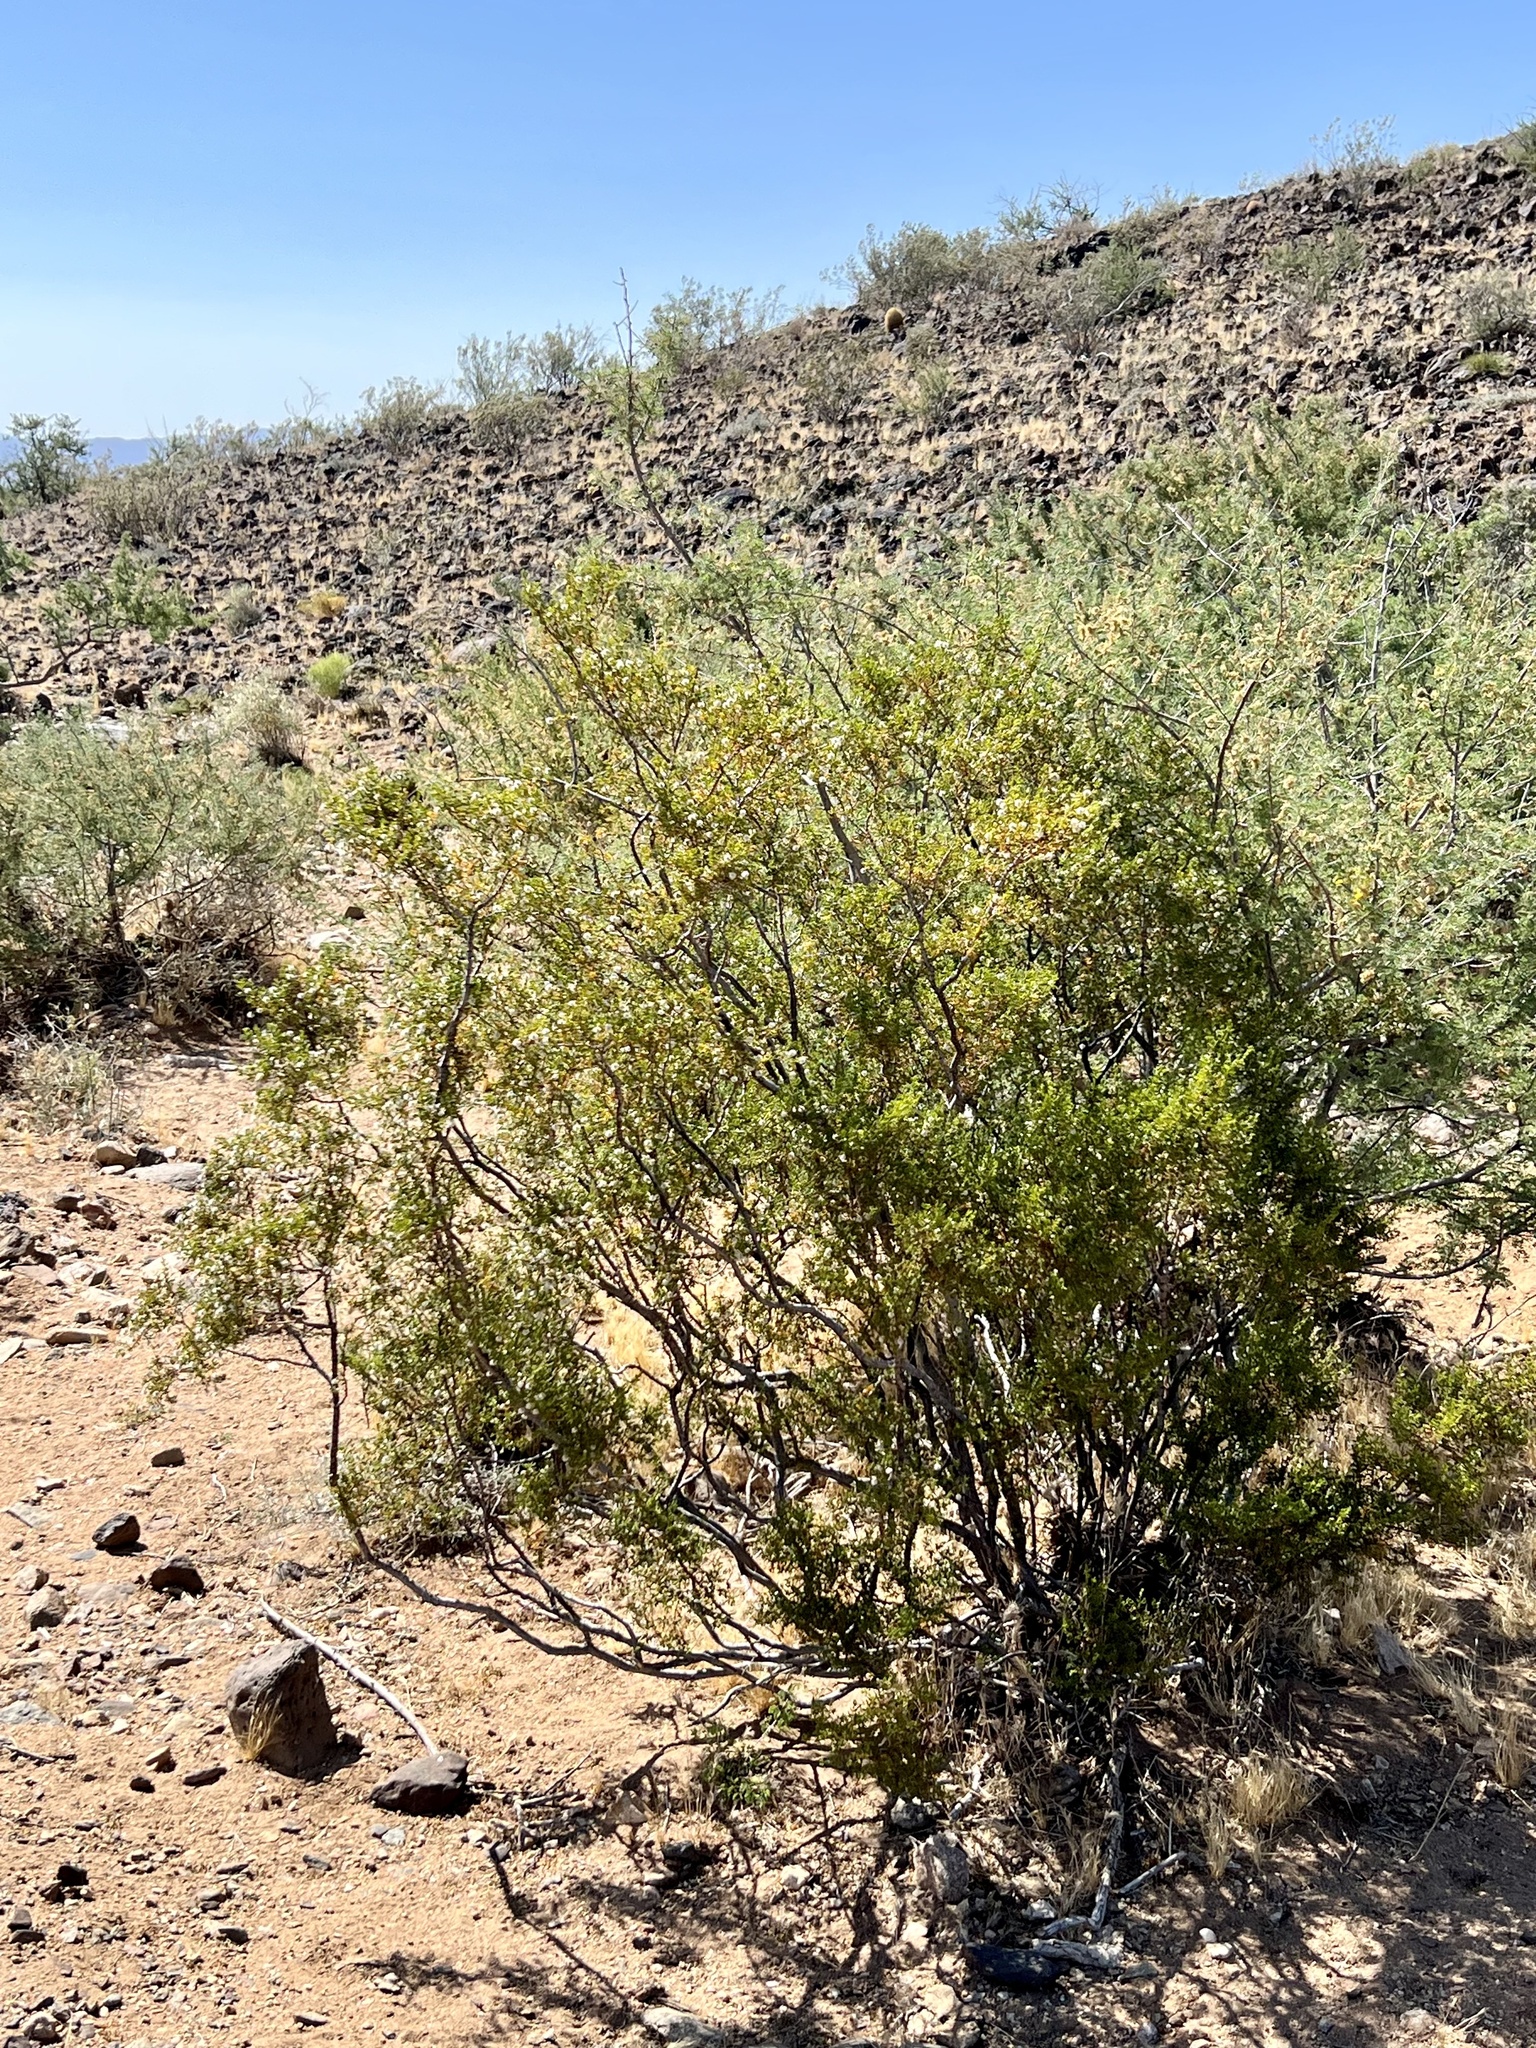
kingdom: Plantae
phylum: Tracheophyta
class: Magnoliopsida
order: Zygophyllales
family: Zygophyllaceae
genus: Larrea
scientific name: Larrea tridentata
